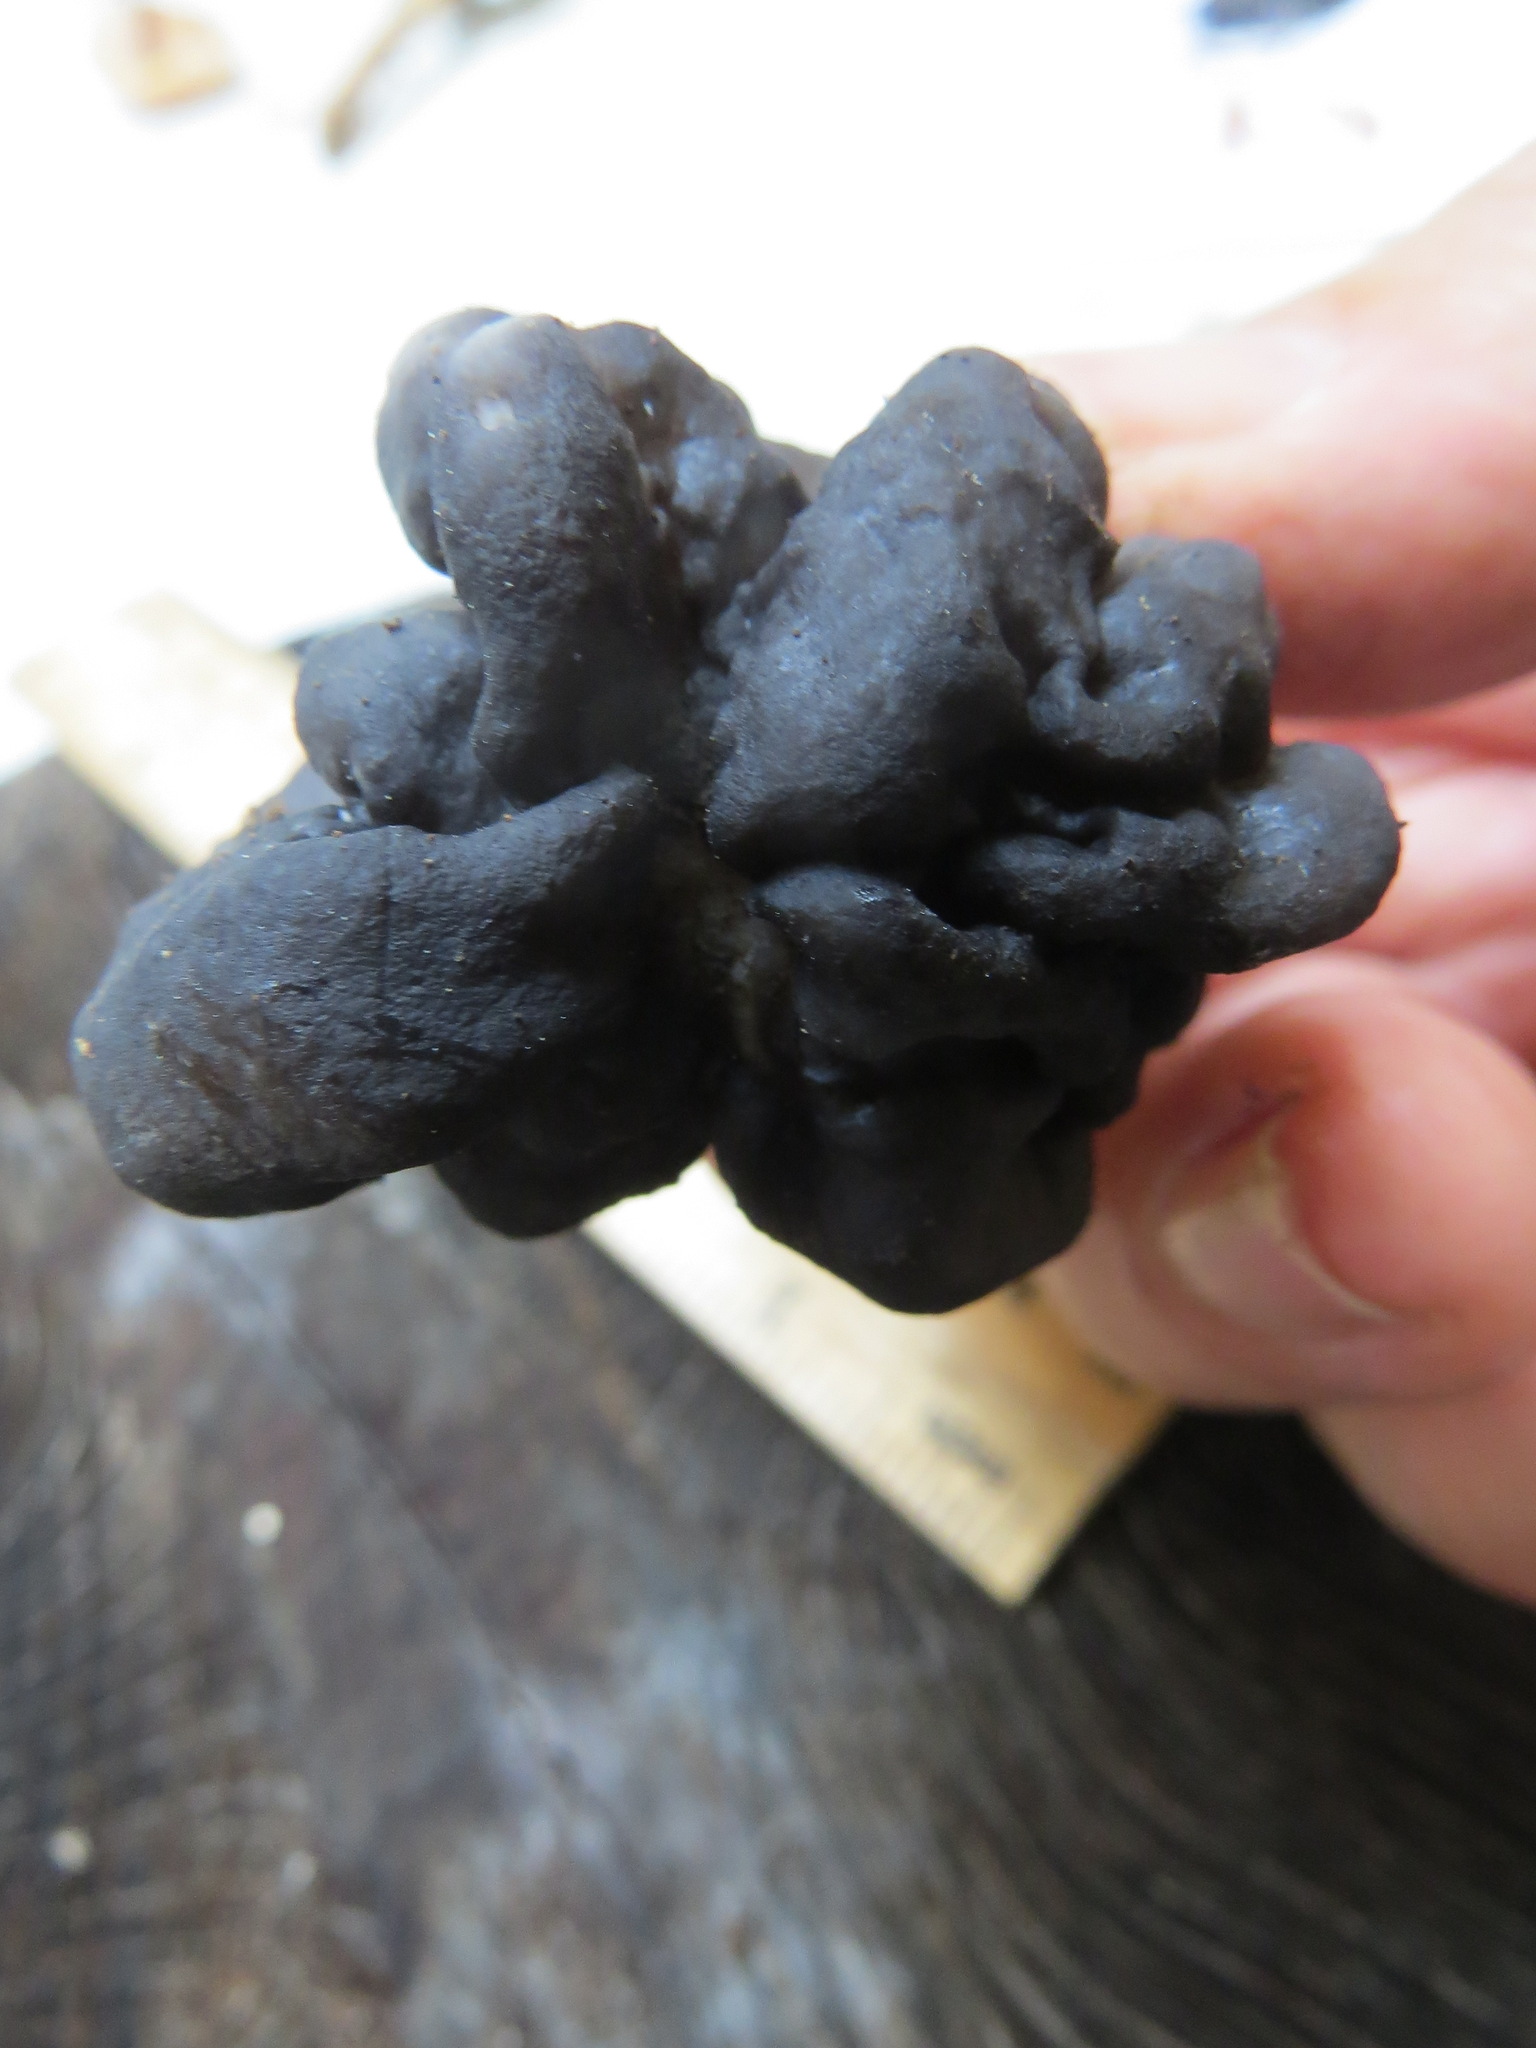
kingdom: Fungi
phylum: Ascomycota
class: Pezizomycetes
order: Pezizales
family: Helvellaceae
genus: Helvella
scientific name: Helvella dryophila
